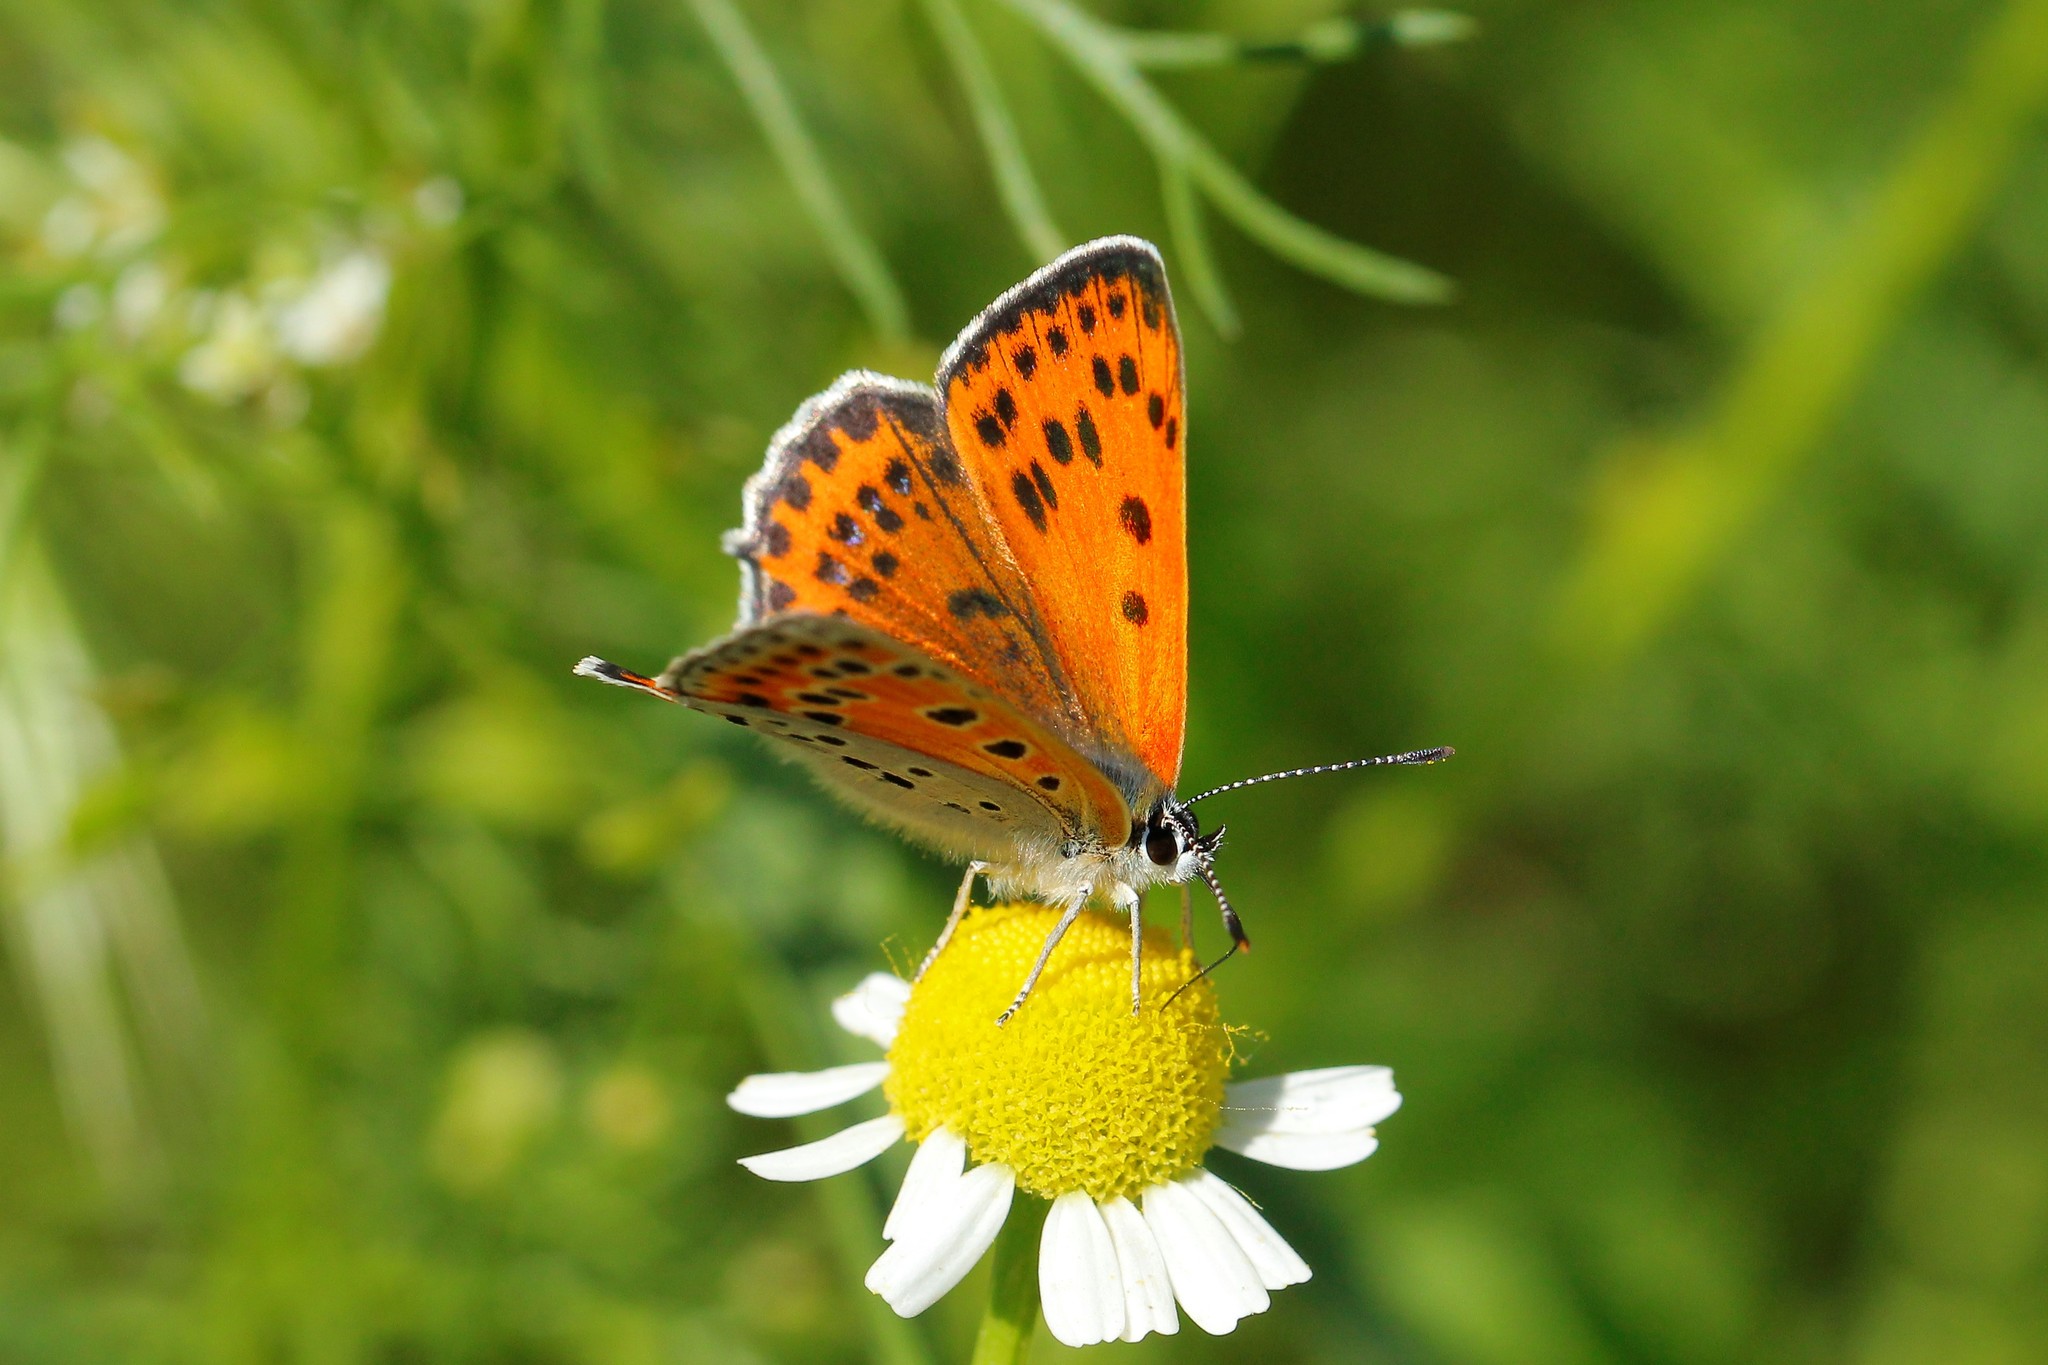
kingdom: Animalia
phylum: Arthropoda
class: Insecta
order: Lepidoptera
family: Lycaenidae
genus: Thersamonia
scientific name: Thersamonia thersamon
